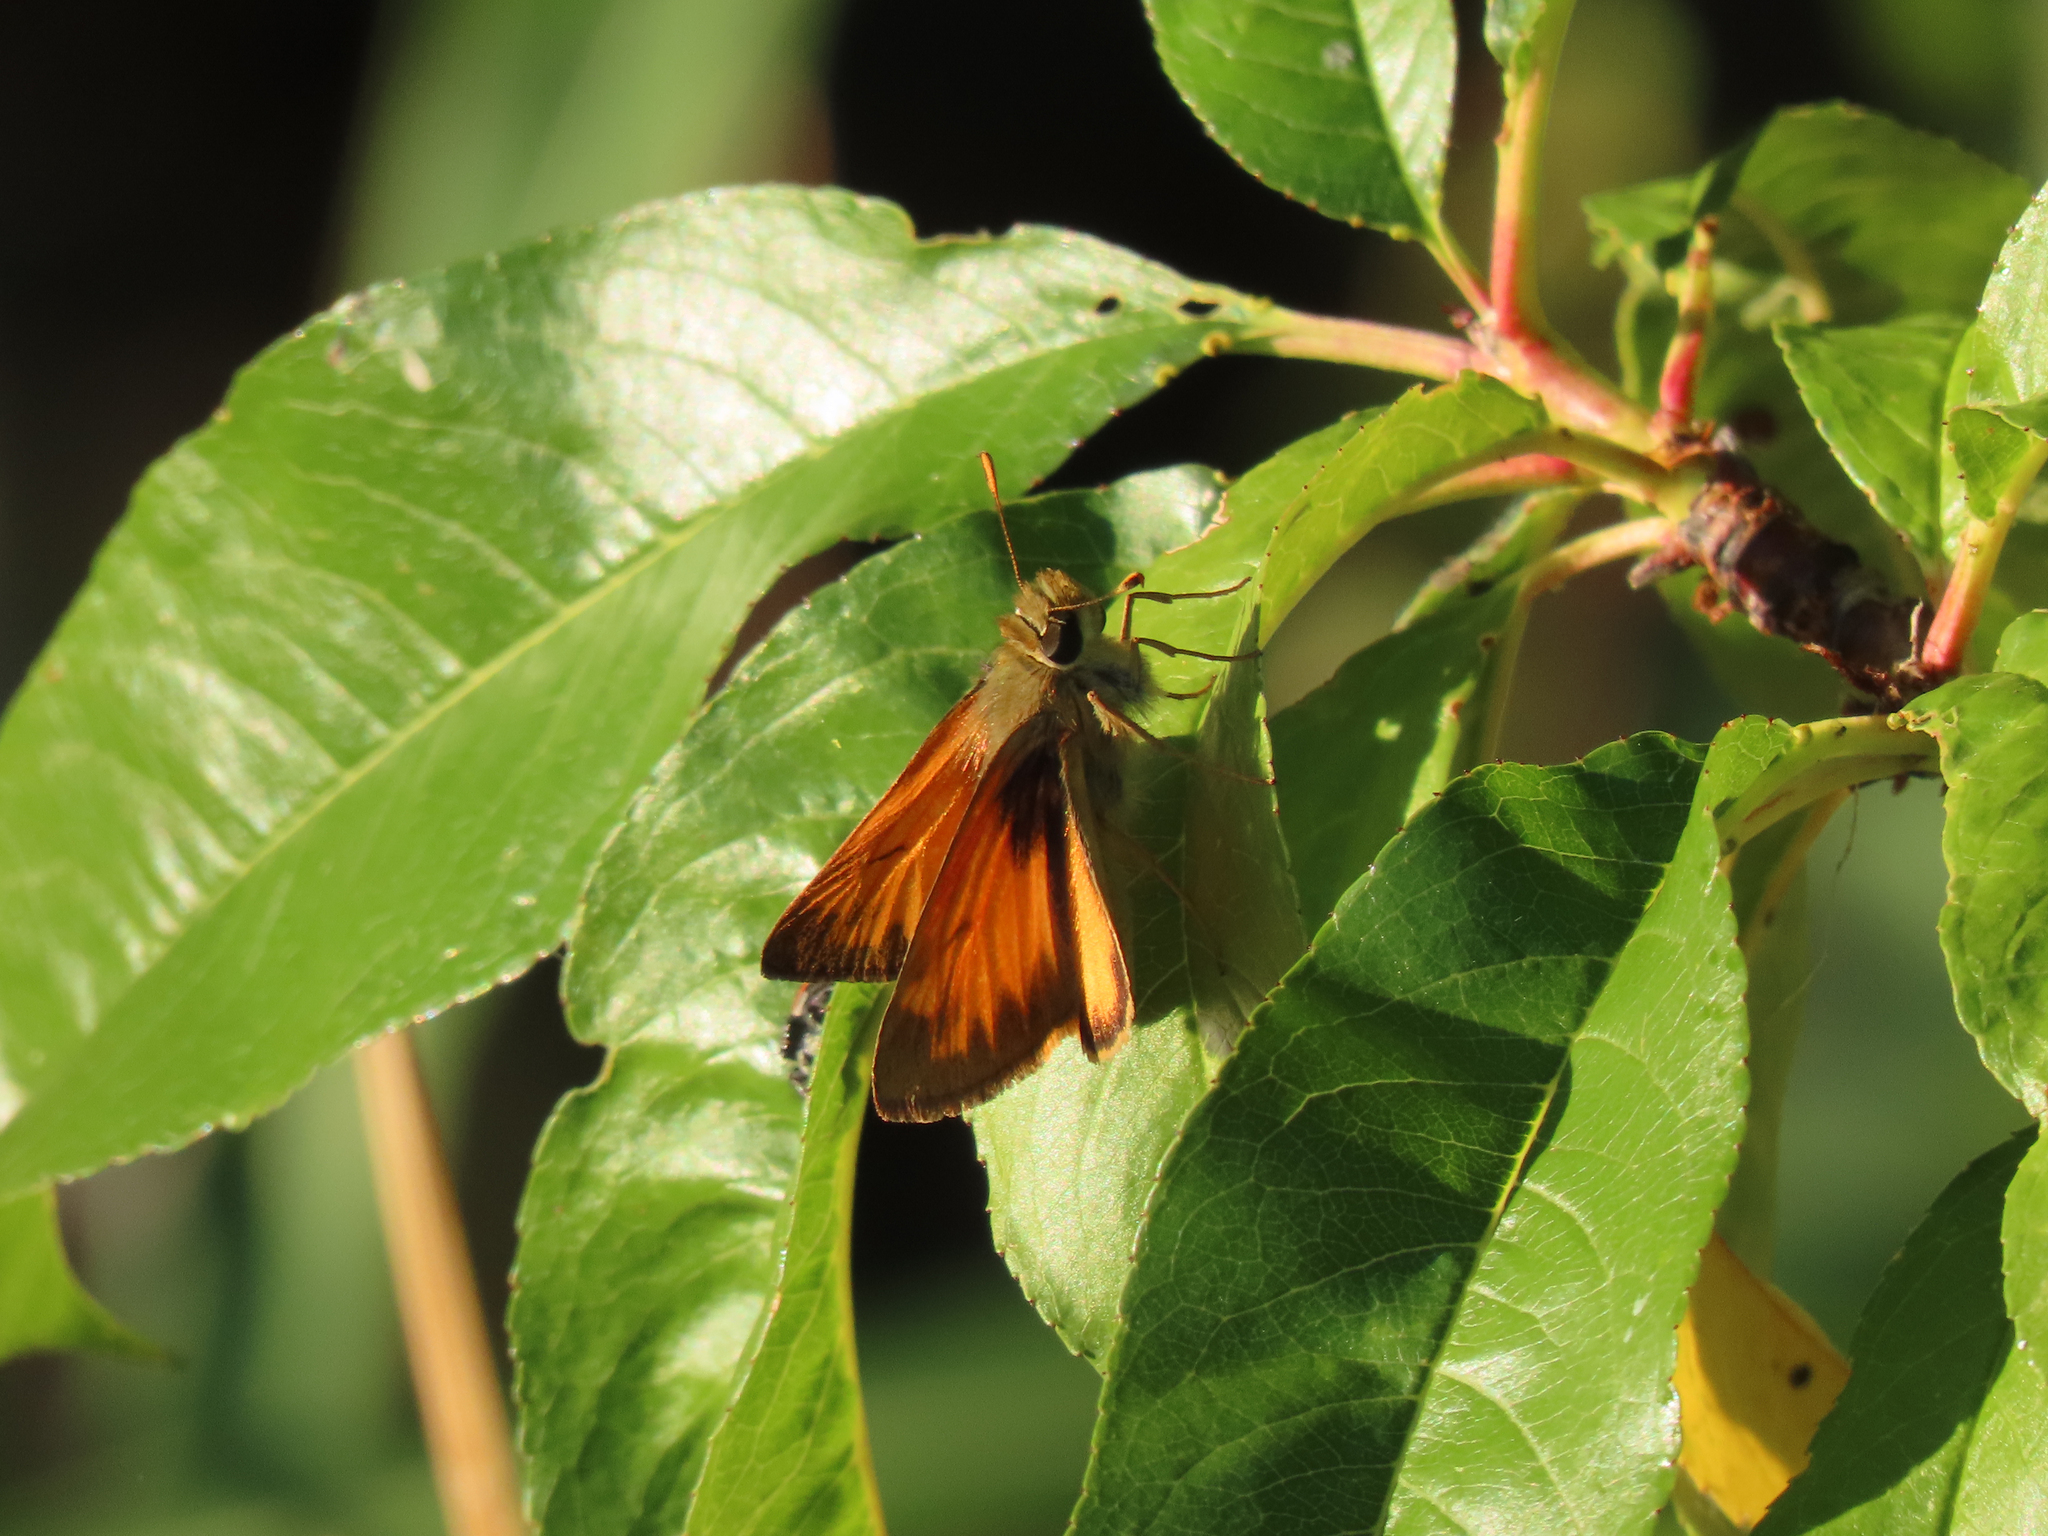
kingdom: Animalia
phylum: Arthropoda
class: Insecta
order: Lepidoptera
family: Hesperiidae
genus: Lon
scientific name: Lon taxiles
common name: Taxiles skipper
